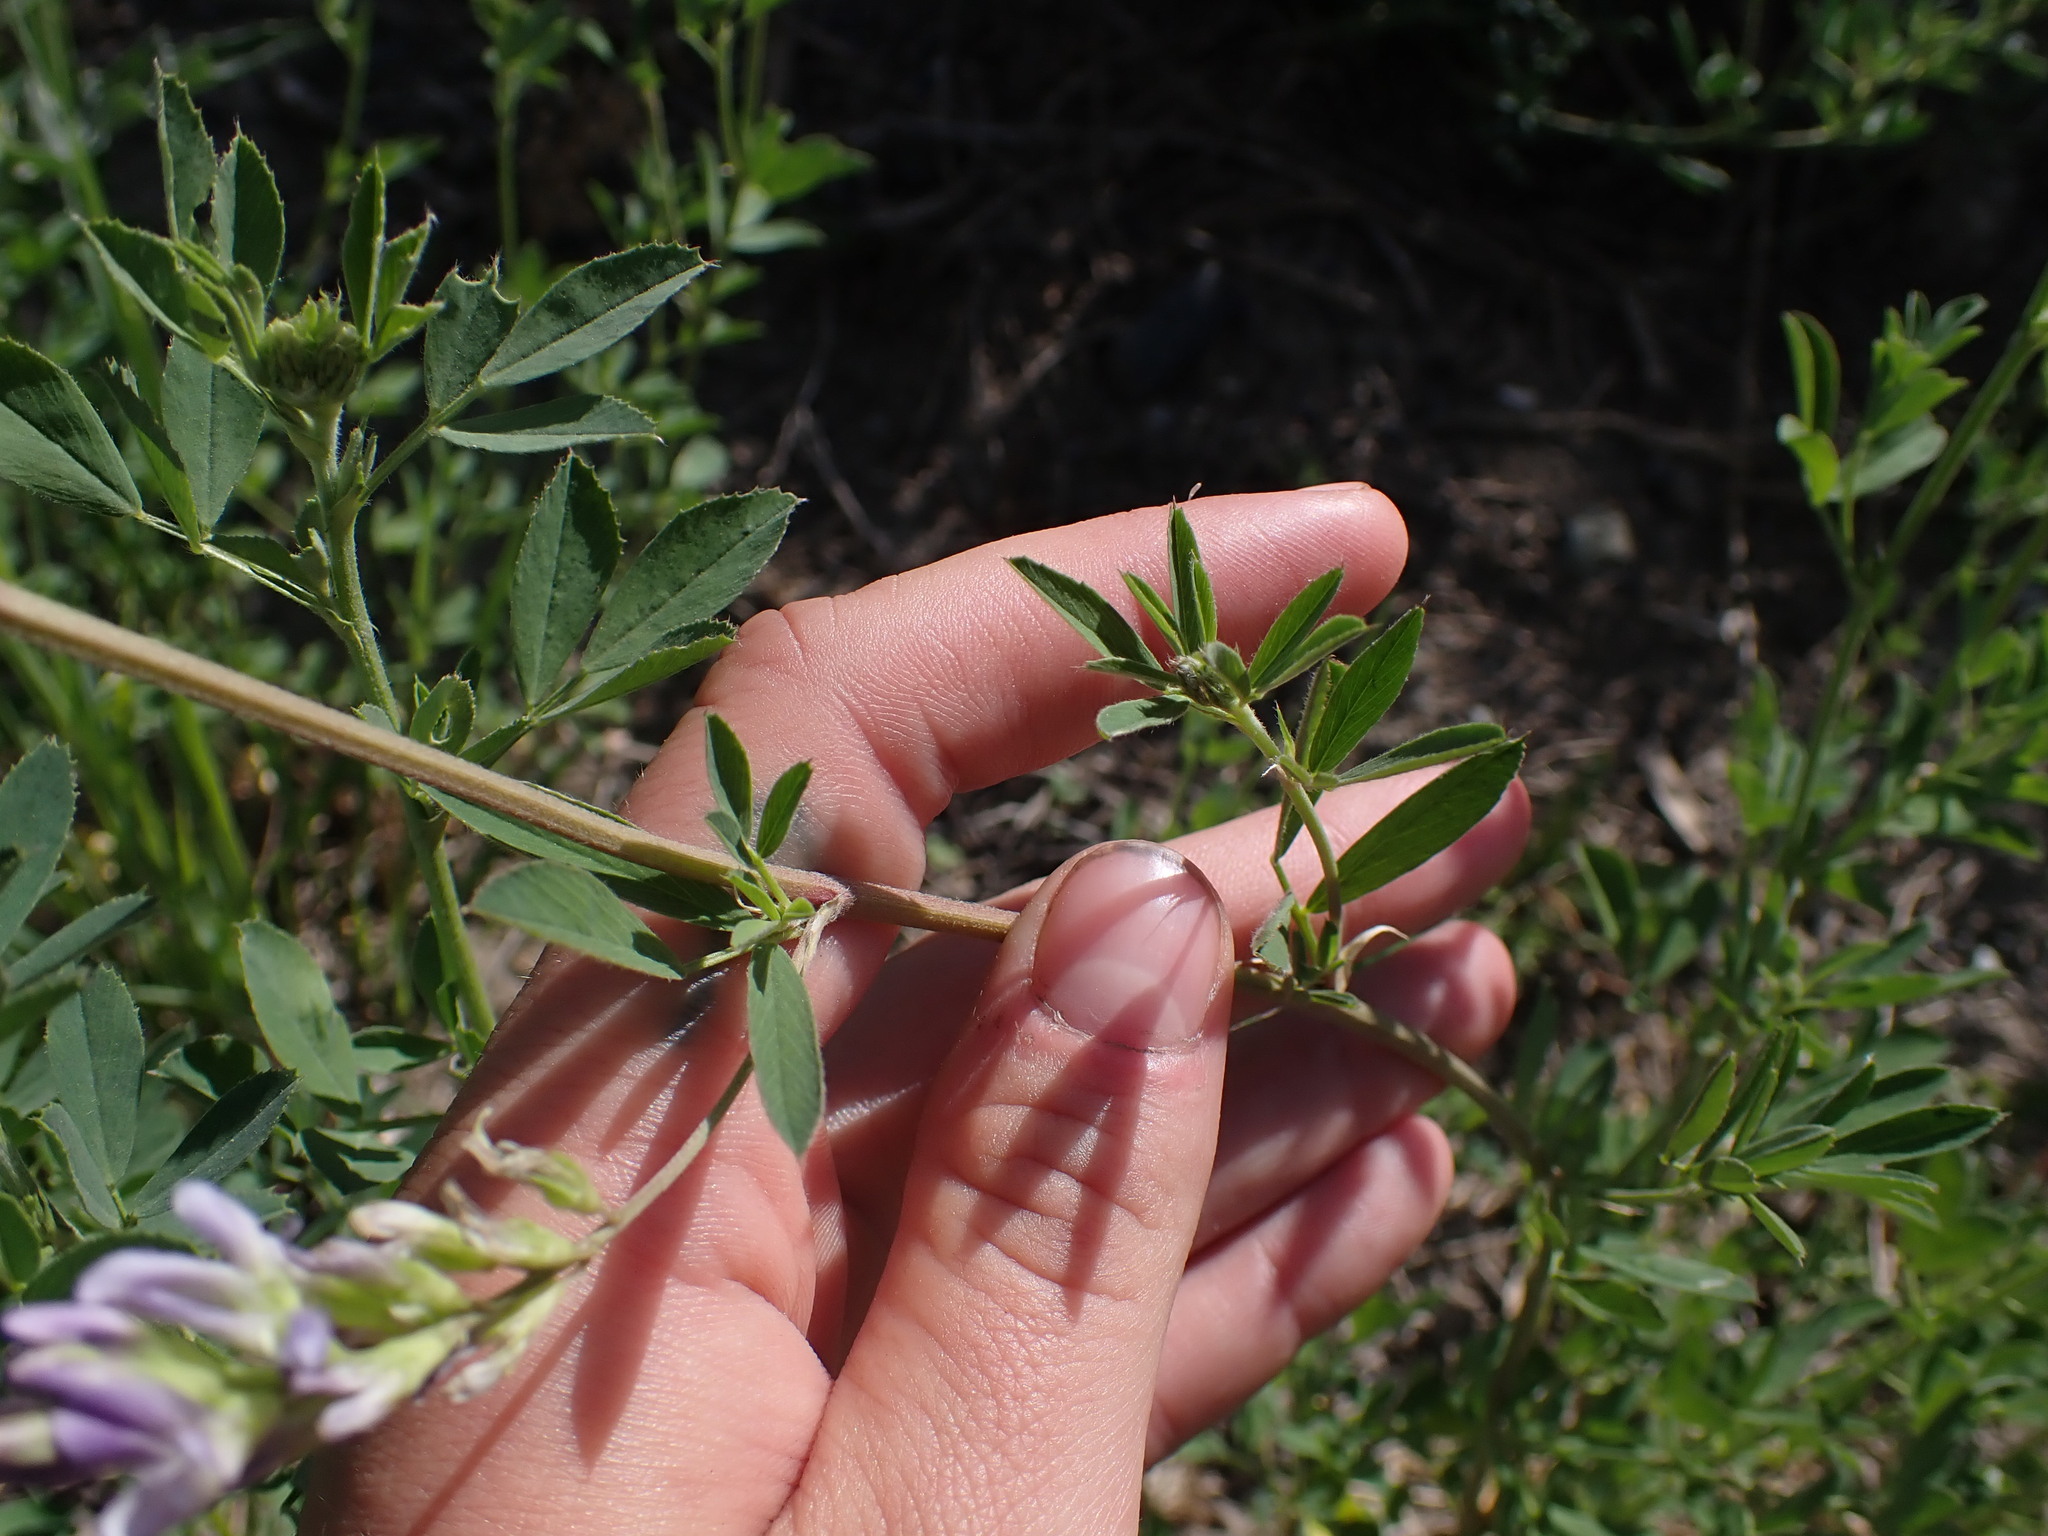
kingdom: Plantae
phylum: Tracheophyta
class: Magnoliopsida
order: Fabales
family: Fabaceae
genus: Medicago
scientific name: Medicago sativa
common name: Alfalfa
